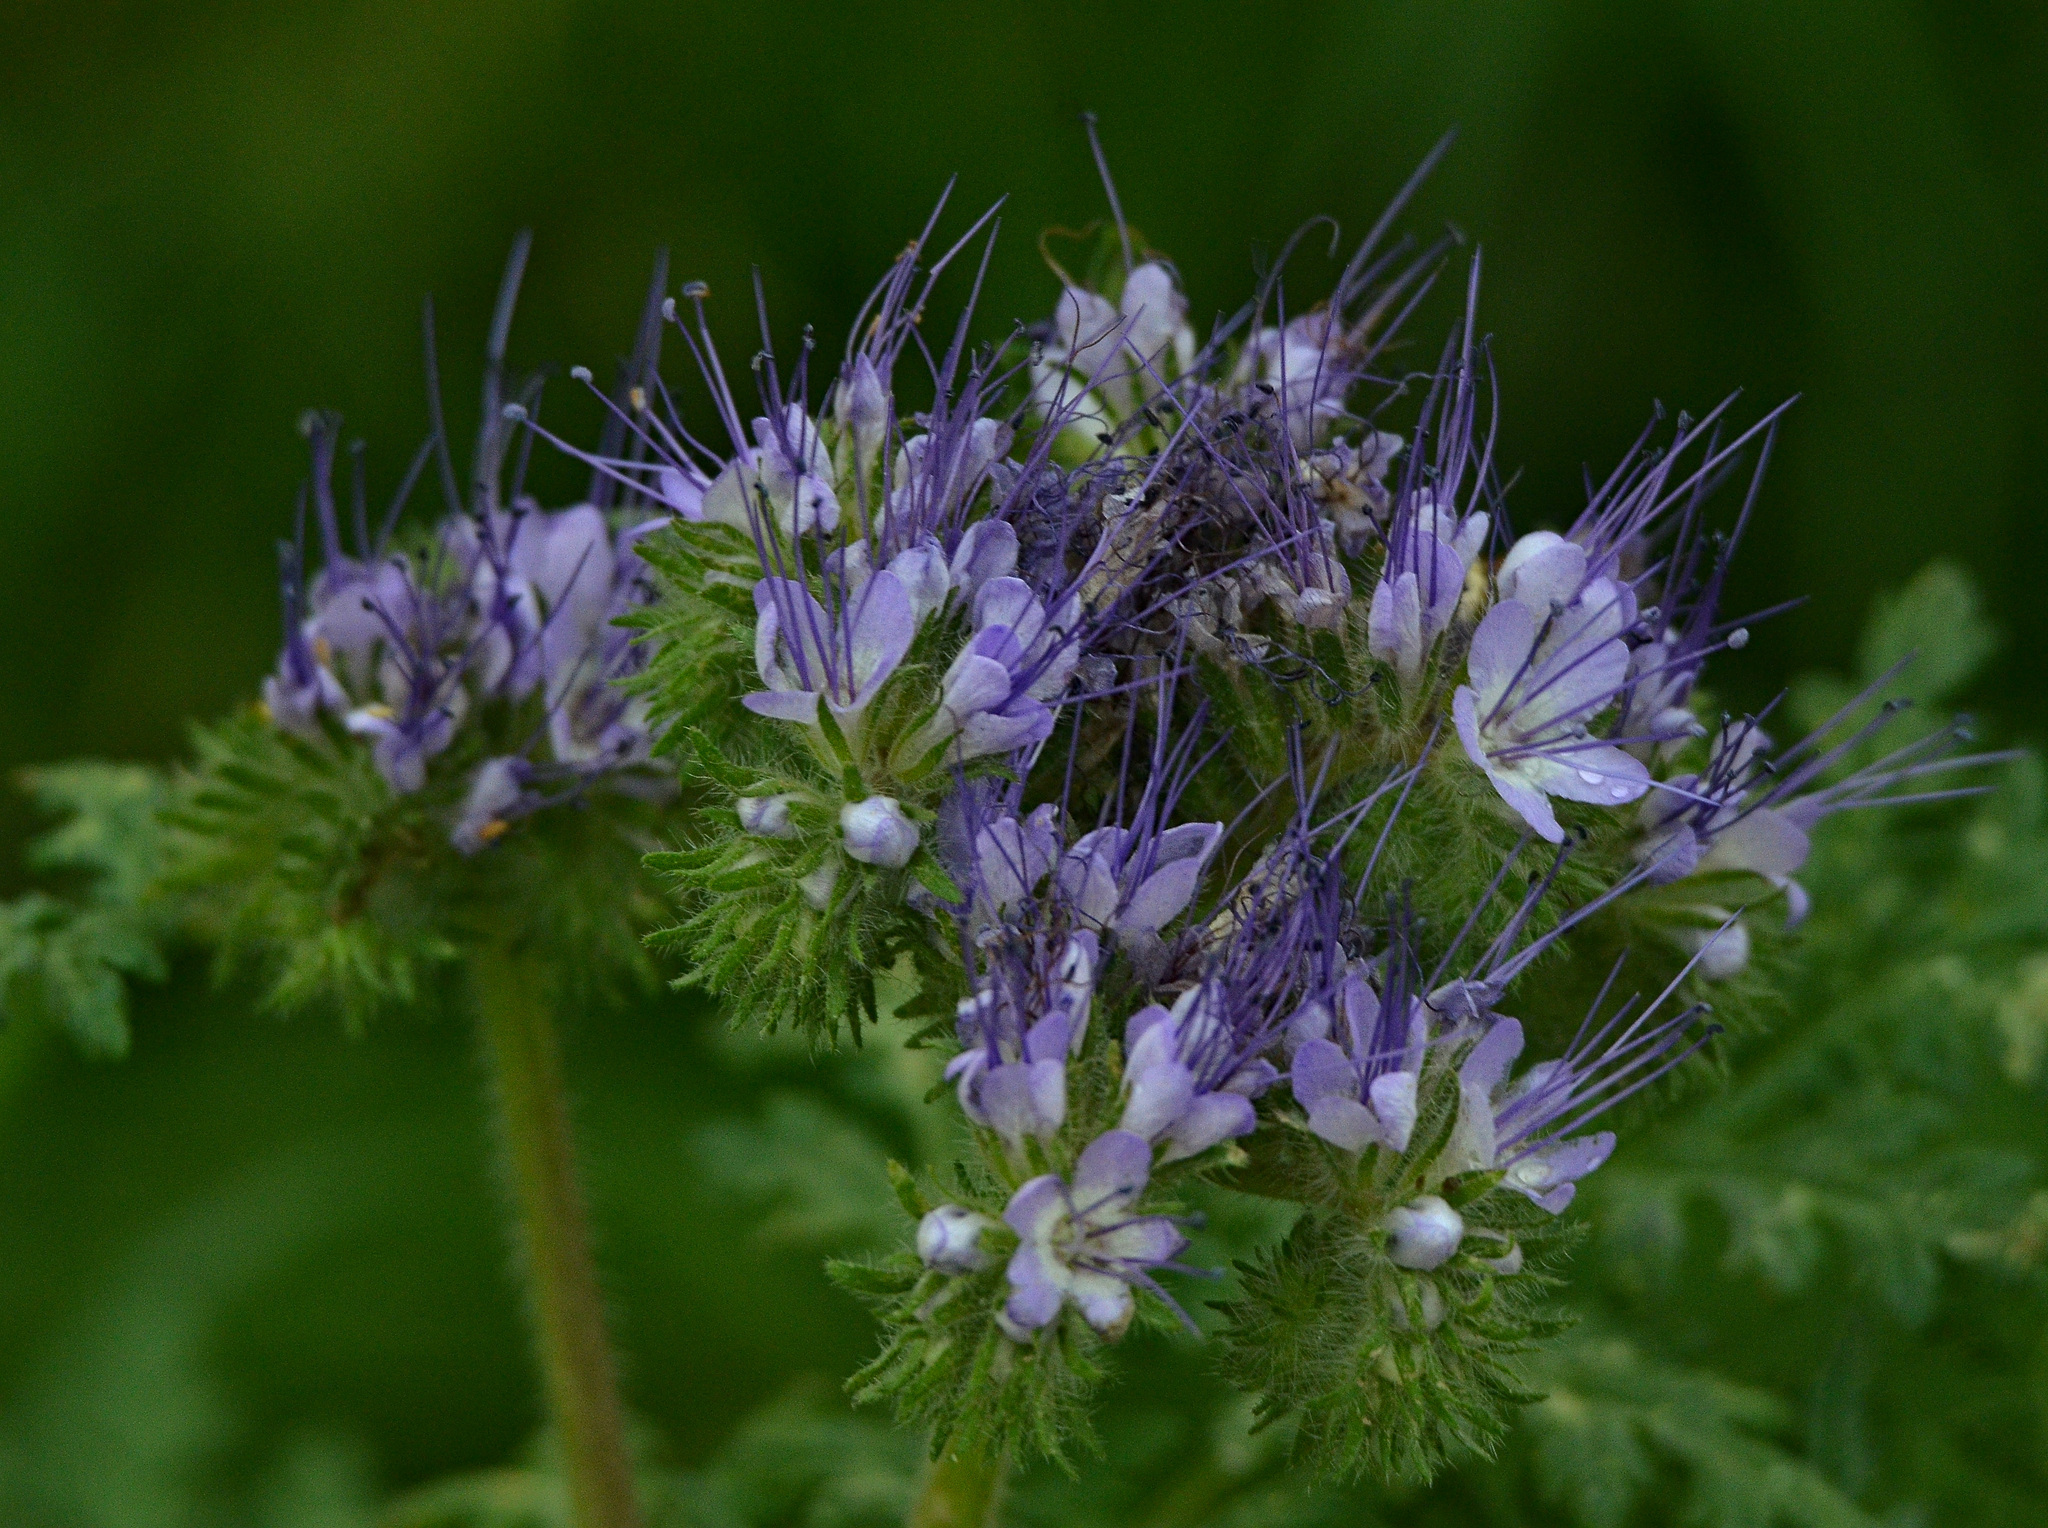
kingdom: Plantae
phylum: Tracheophyta
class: Magnoliopsida
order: Boraginales
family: Hydrophyllaceae
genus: Phacelia
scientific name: Phacelia tanacetifolia
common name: Phacelia
